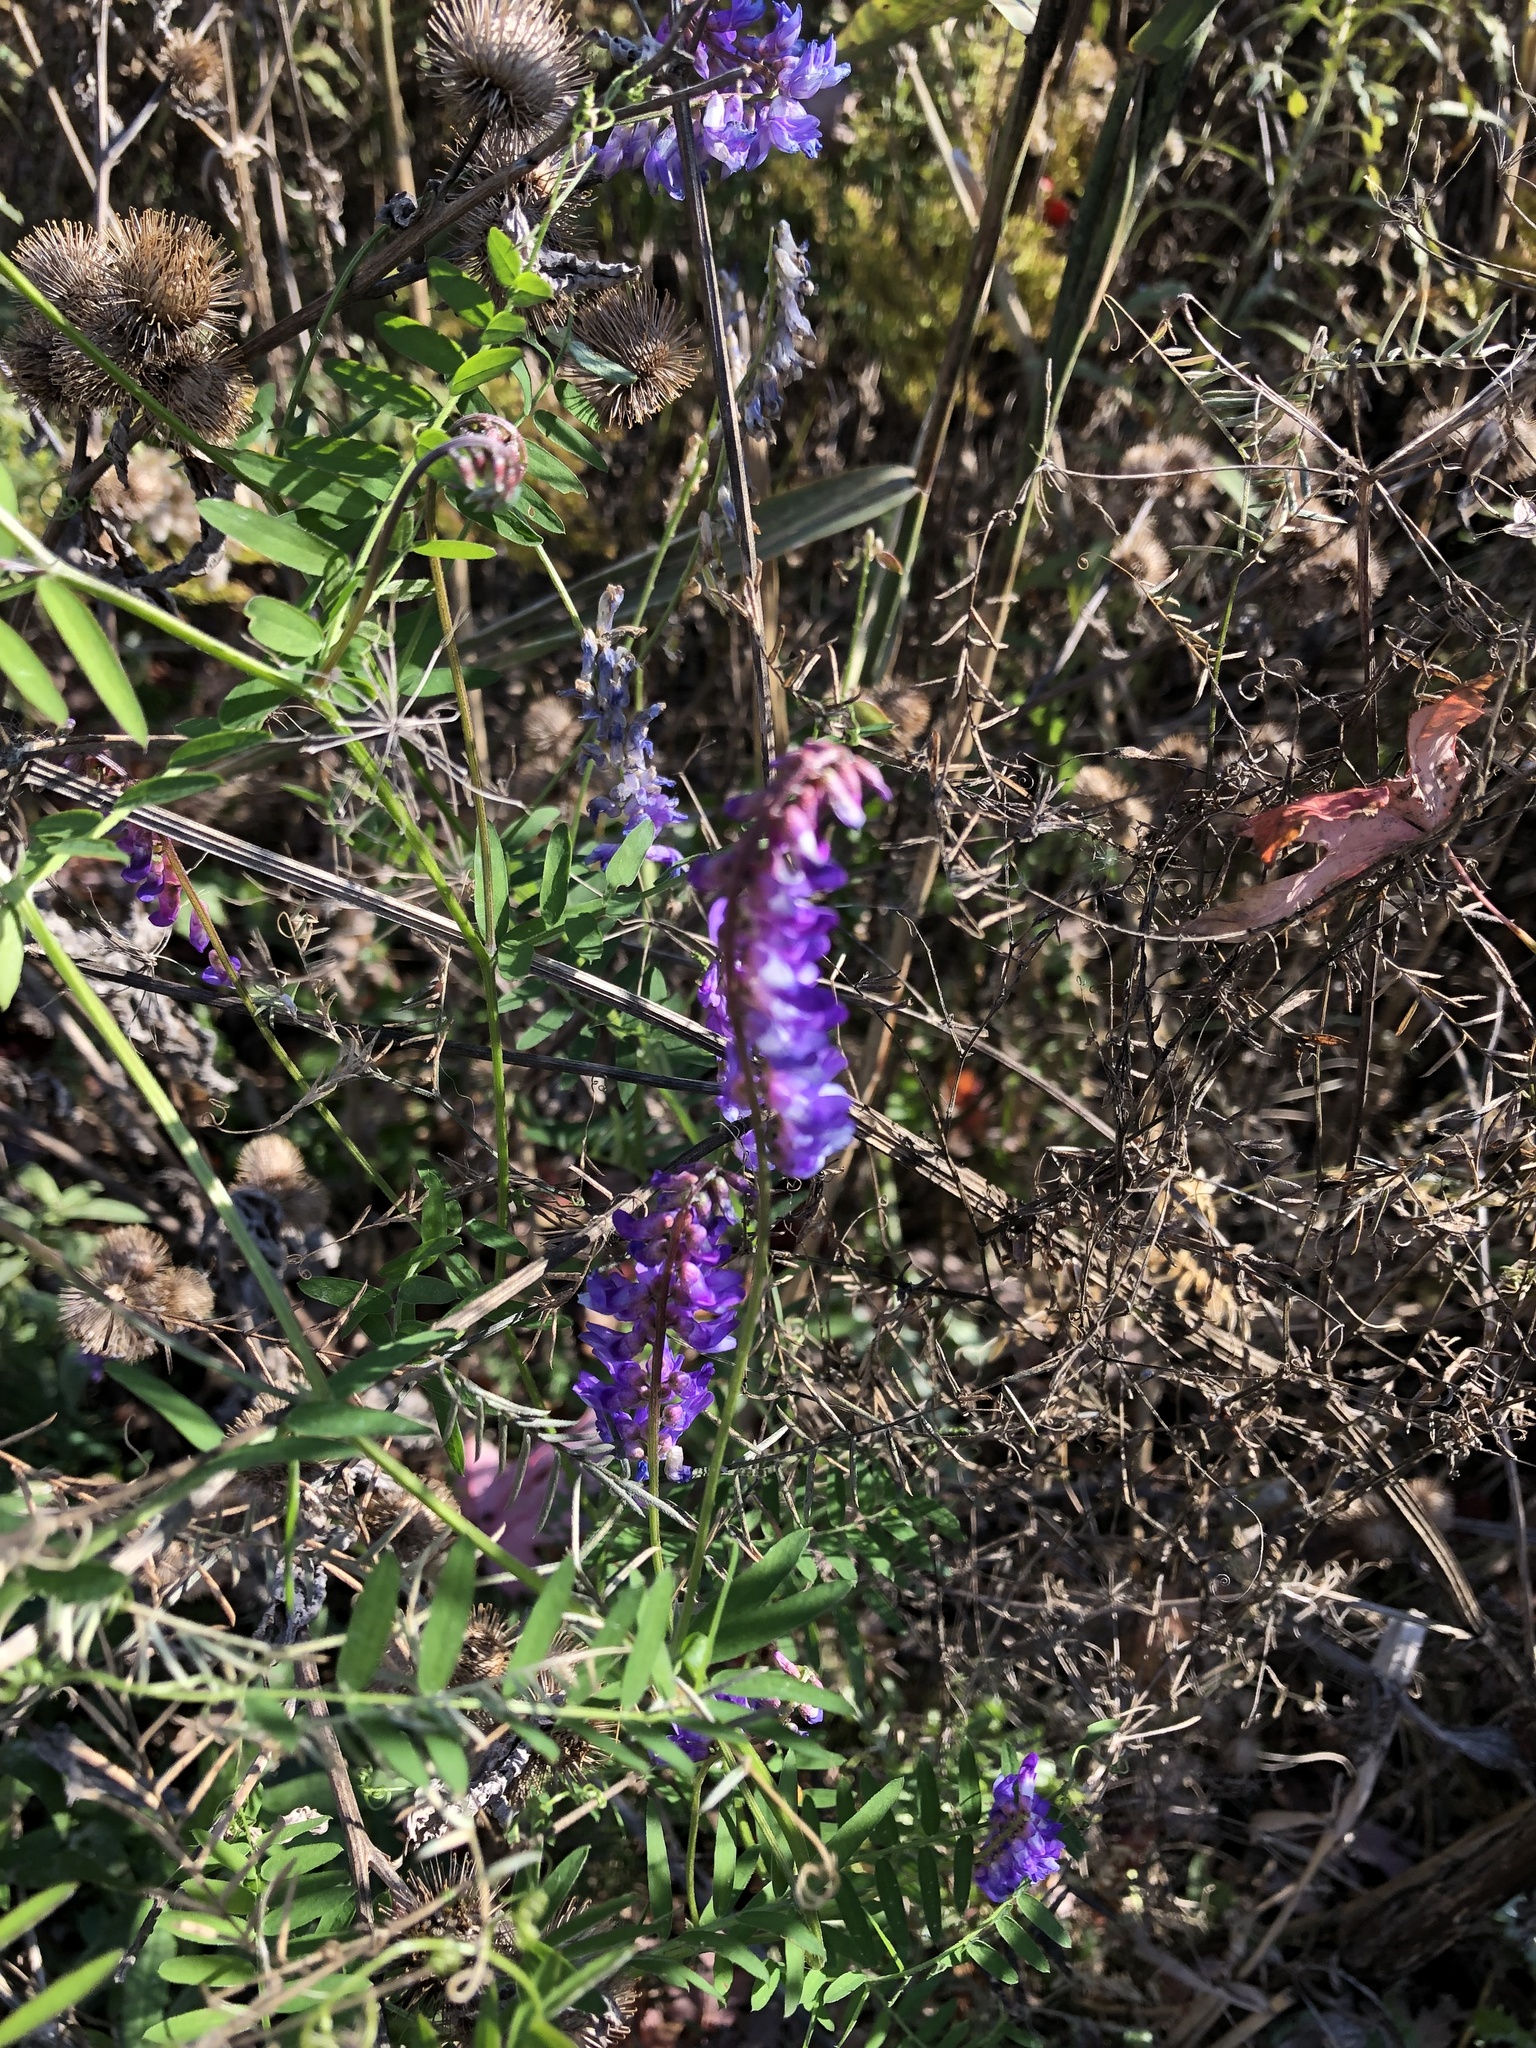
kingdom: Plantae
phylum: Tracheophyta
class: Magnoliopsida
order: Fabales
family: Fabaceae
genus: Vicia
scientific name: Vicia cracca
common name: Bird vetch
